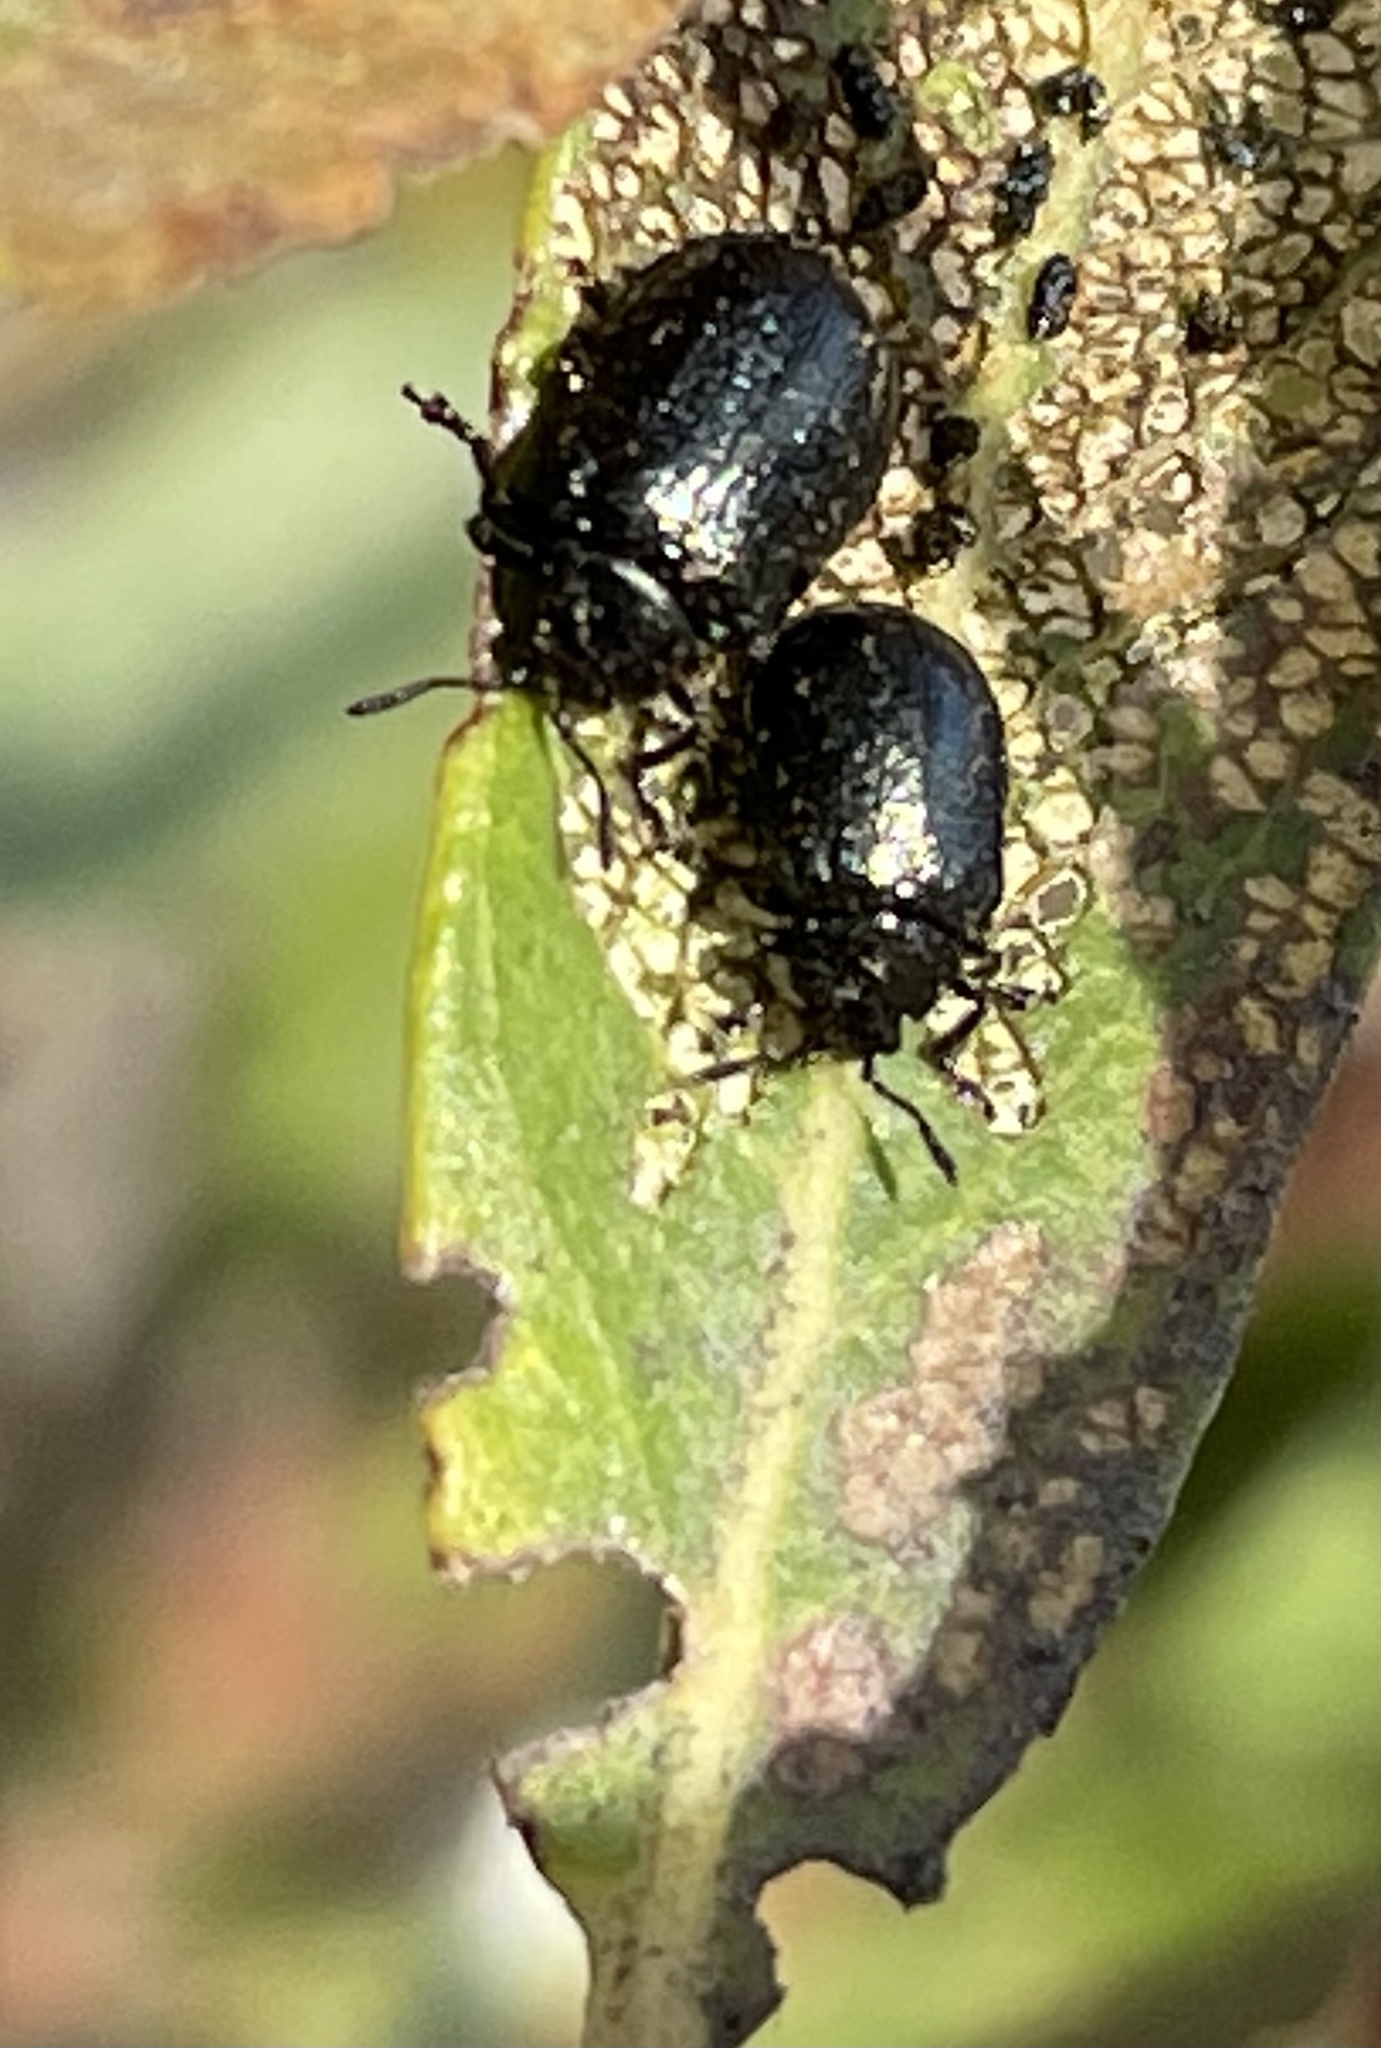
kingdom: Animalia
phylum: Arthropoda
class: Insecta
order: Coleoptera
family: Chrysomelidae
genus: Plagiodera
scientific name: Plagiodera californica
